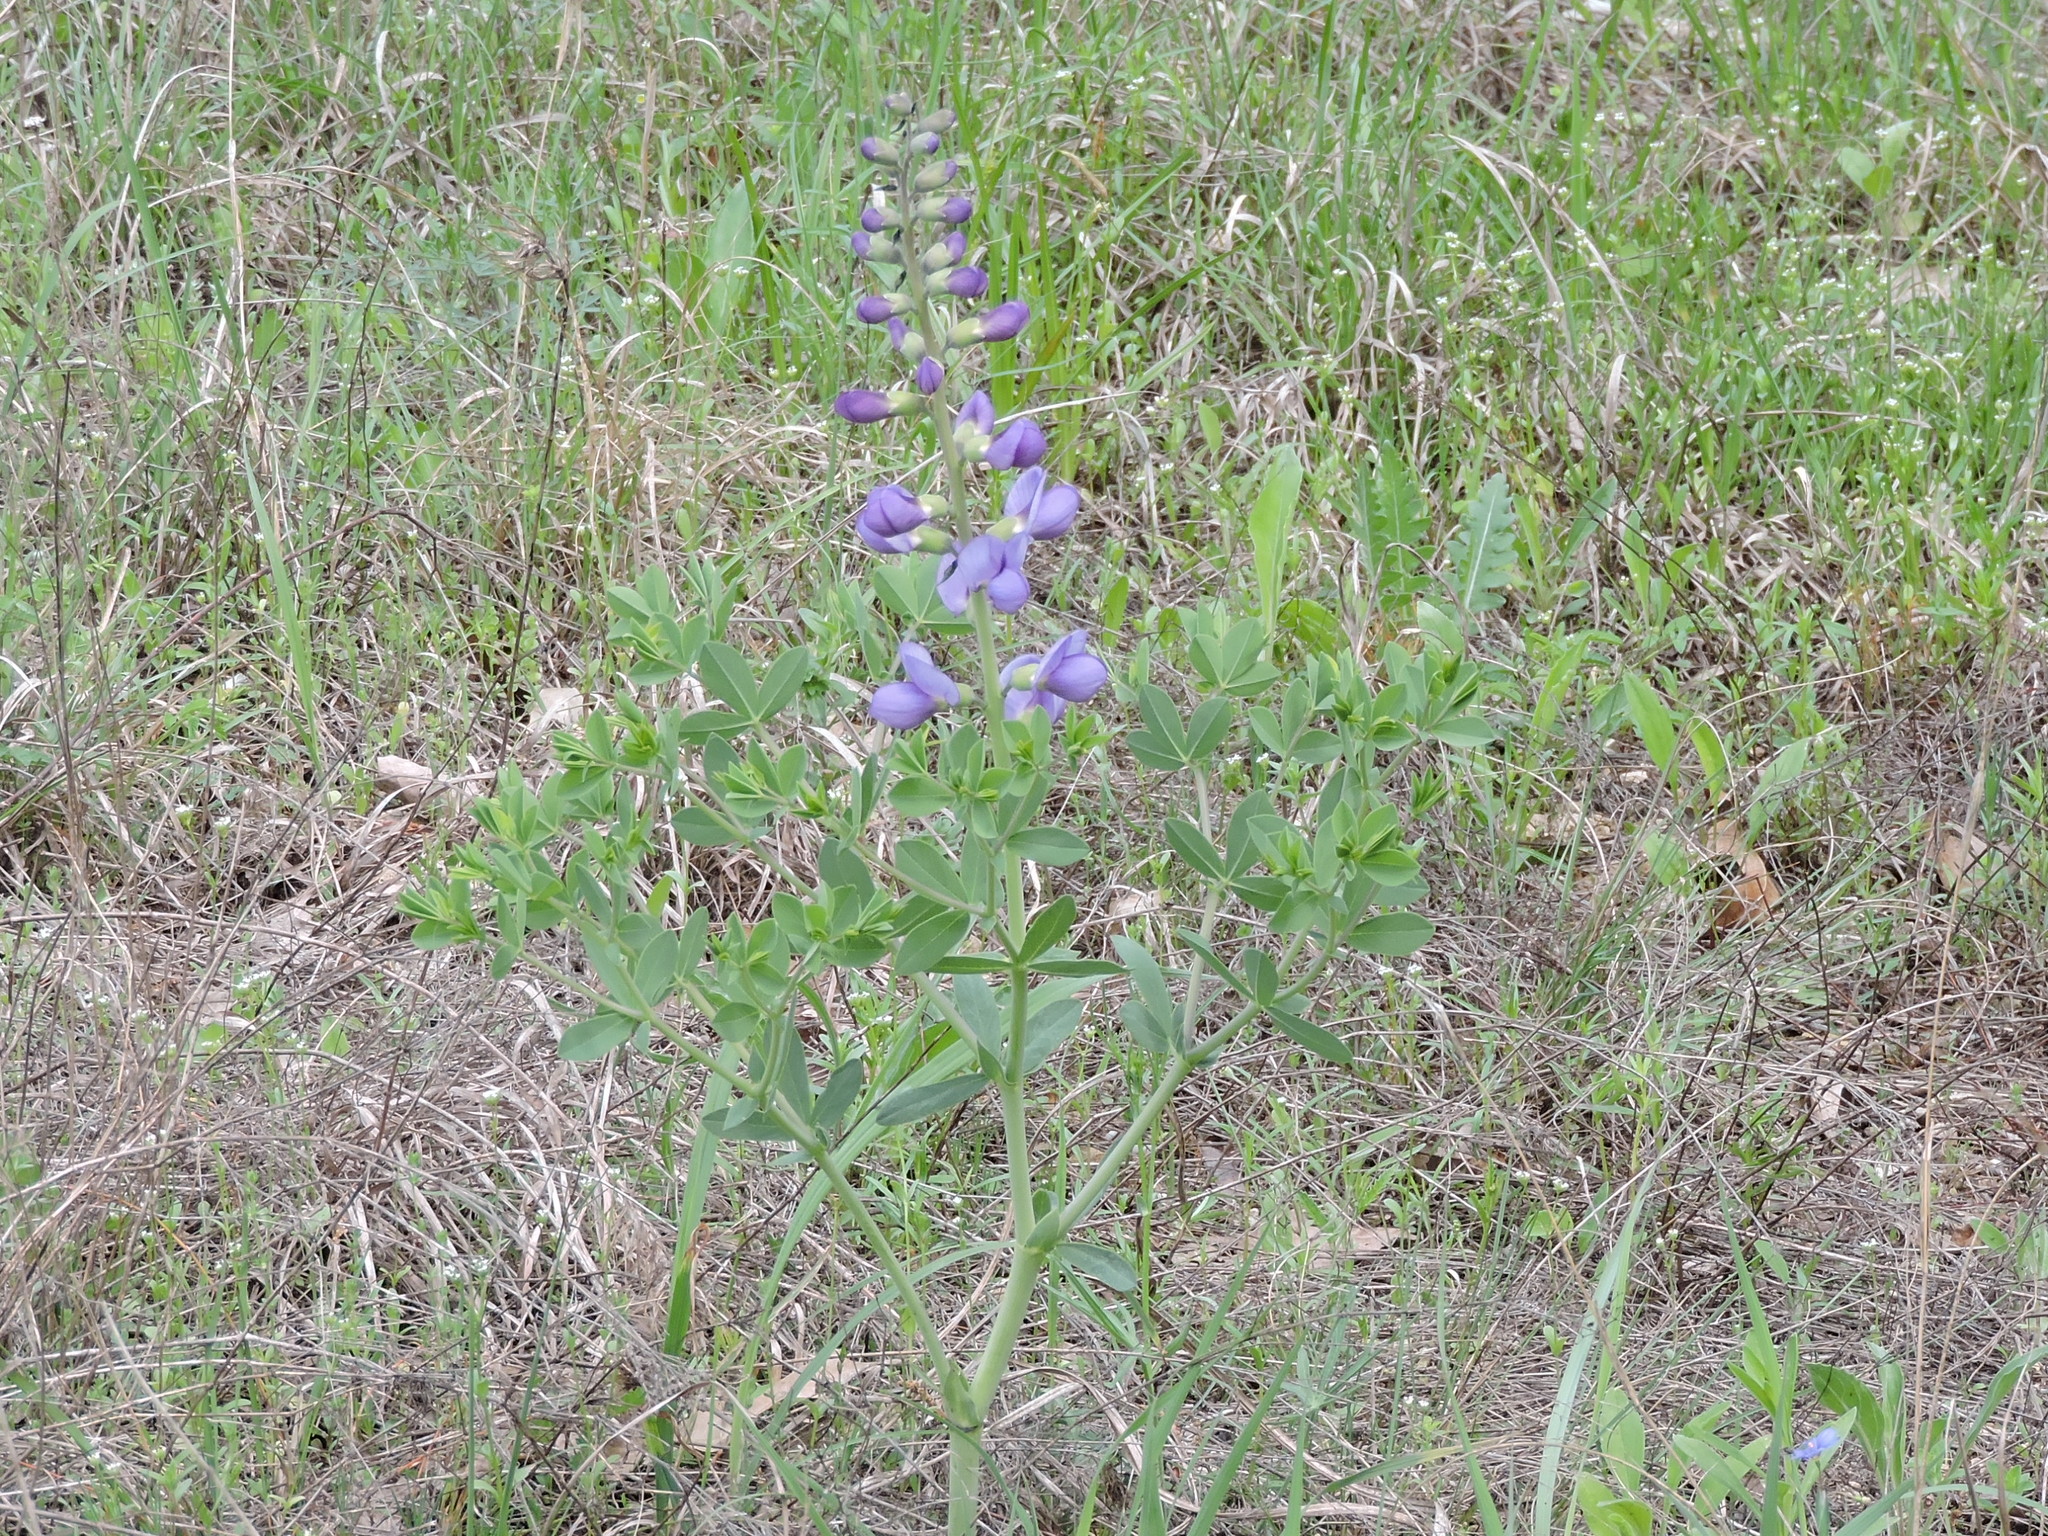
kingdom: Plantae
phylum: Tracheophyta
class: Magnoliopsida
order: Fabales
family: Fabaceae
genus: Baptisia
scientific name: Baptisia australis
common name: Blue false indigo
